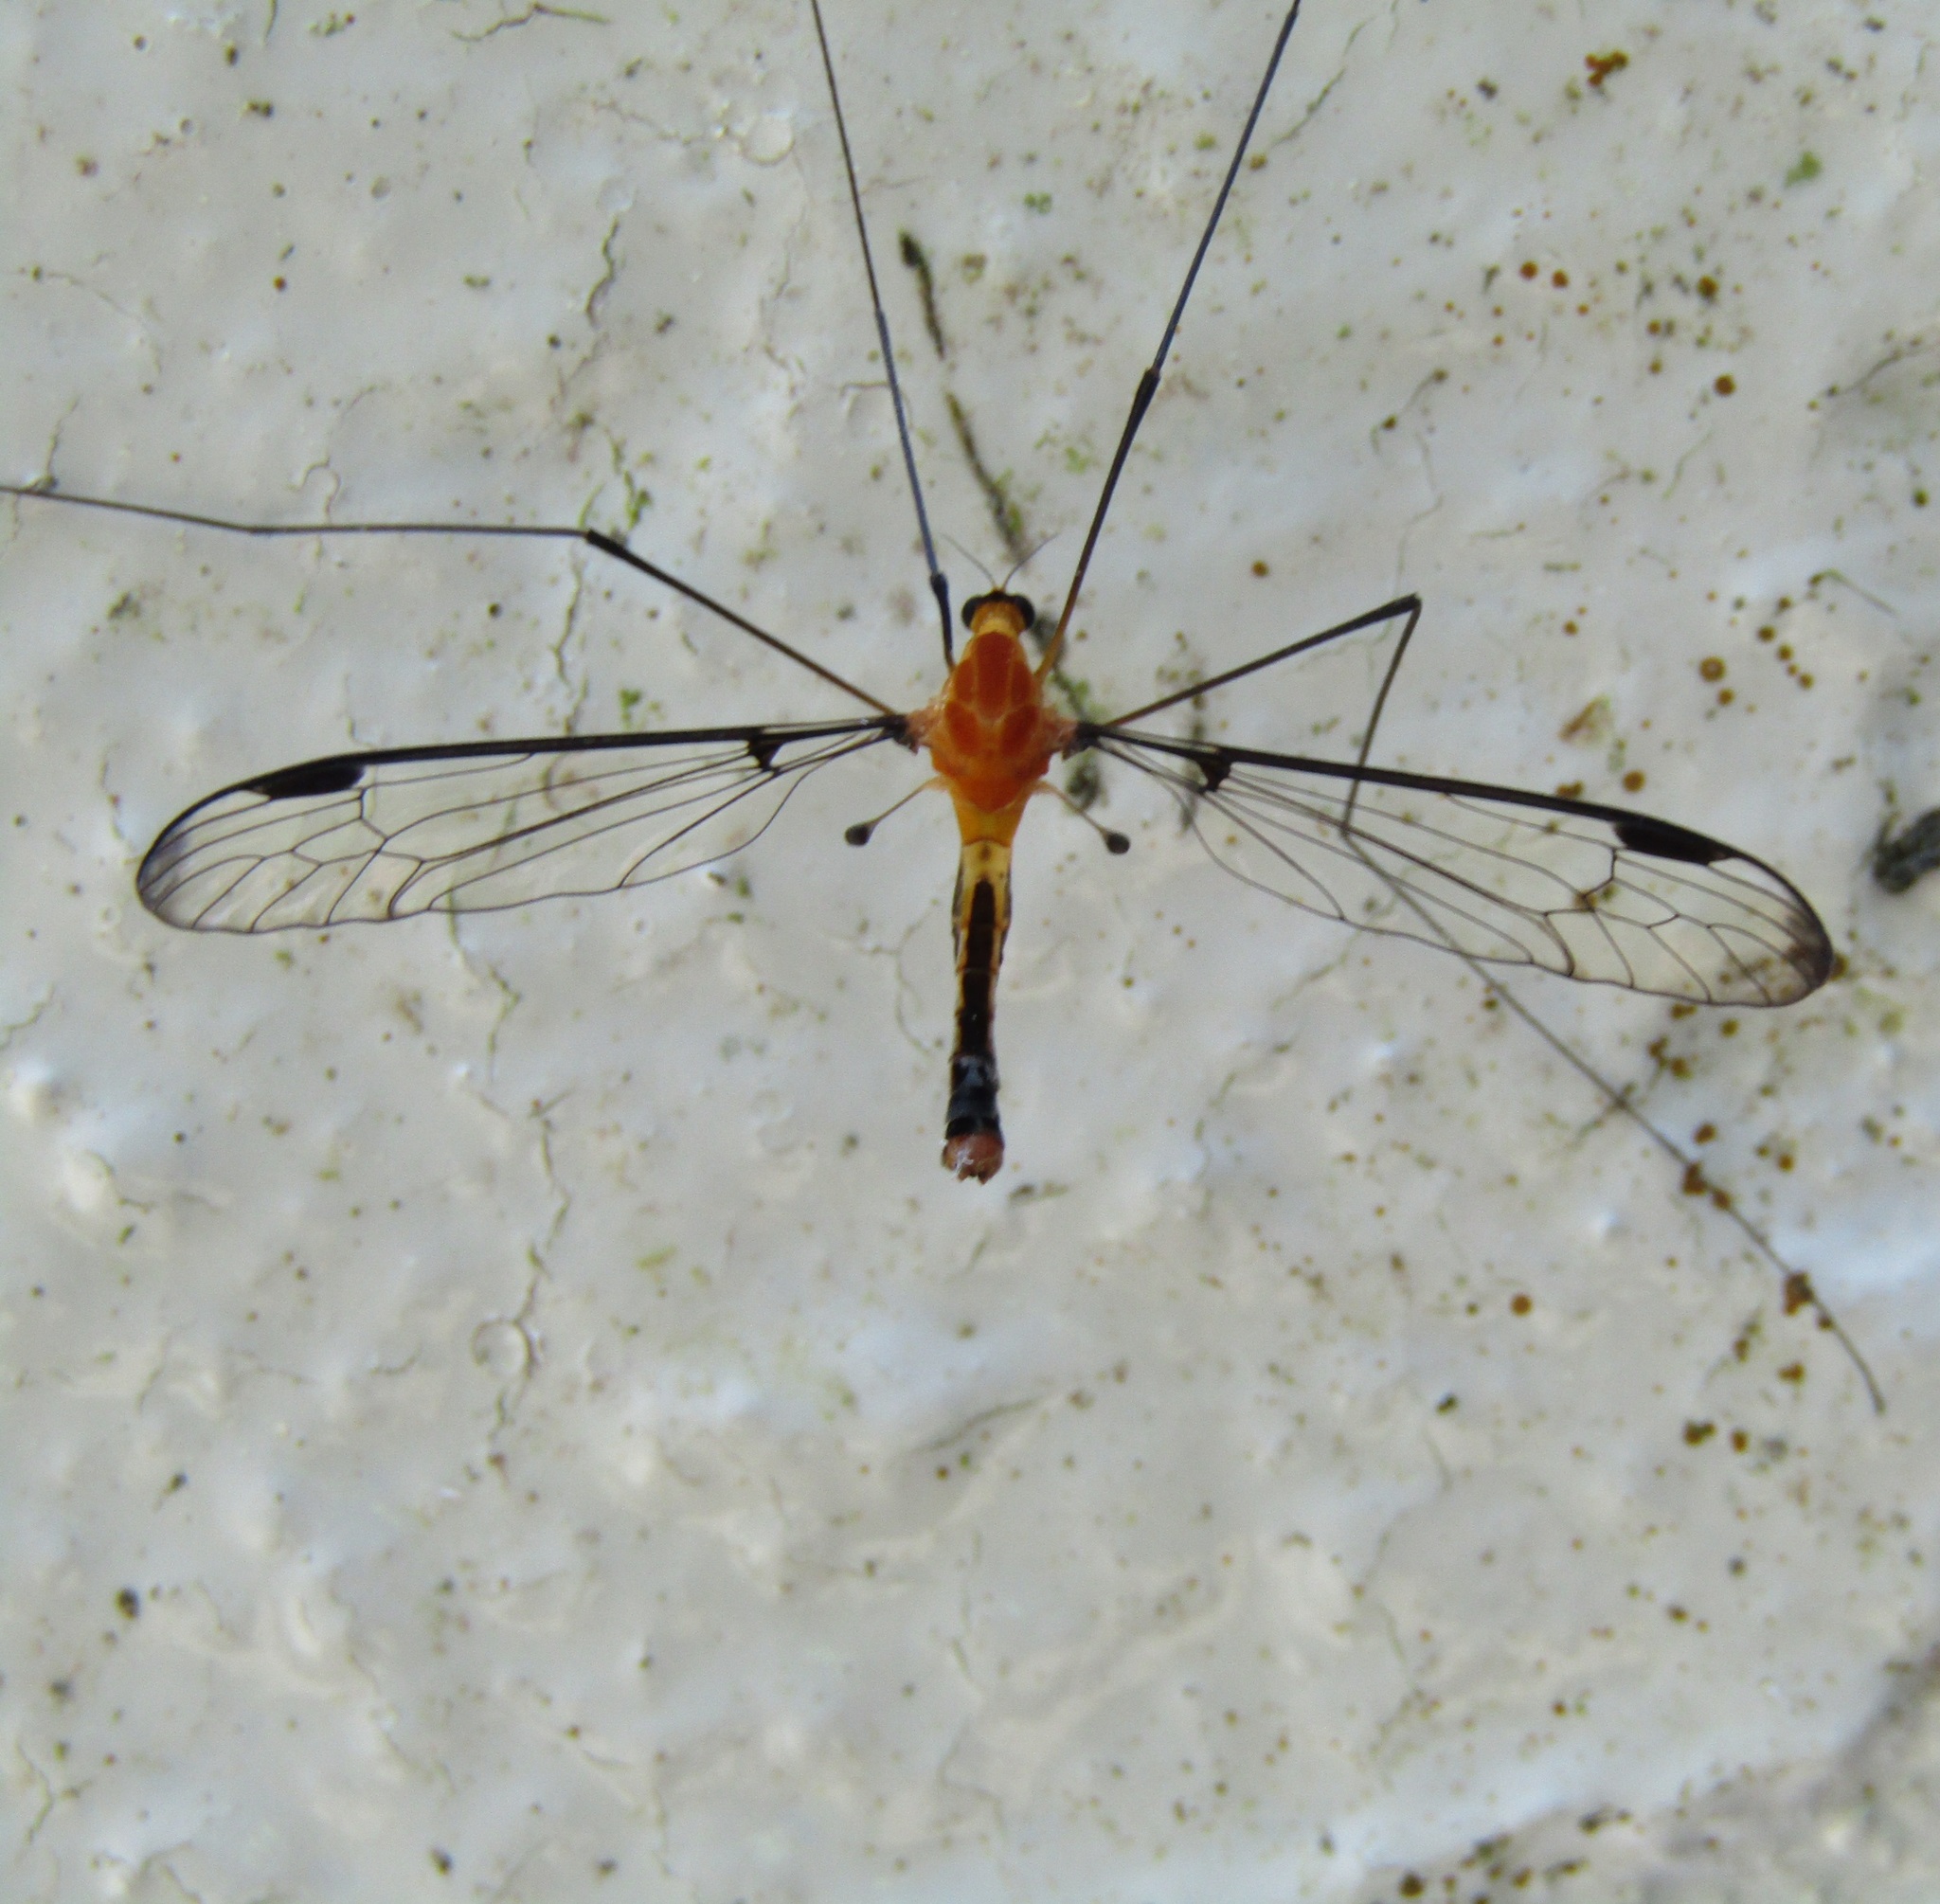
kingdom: Animalia
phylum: Arthropoda
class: Insecta
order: Diptera
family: Tipulidae
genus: Aurotipula
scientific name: Aurotipula
